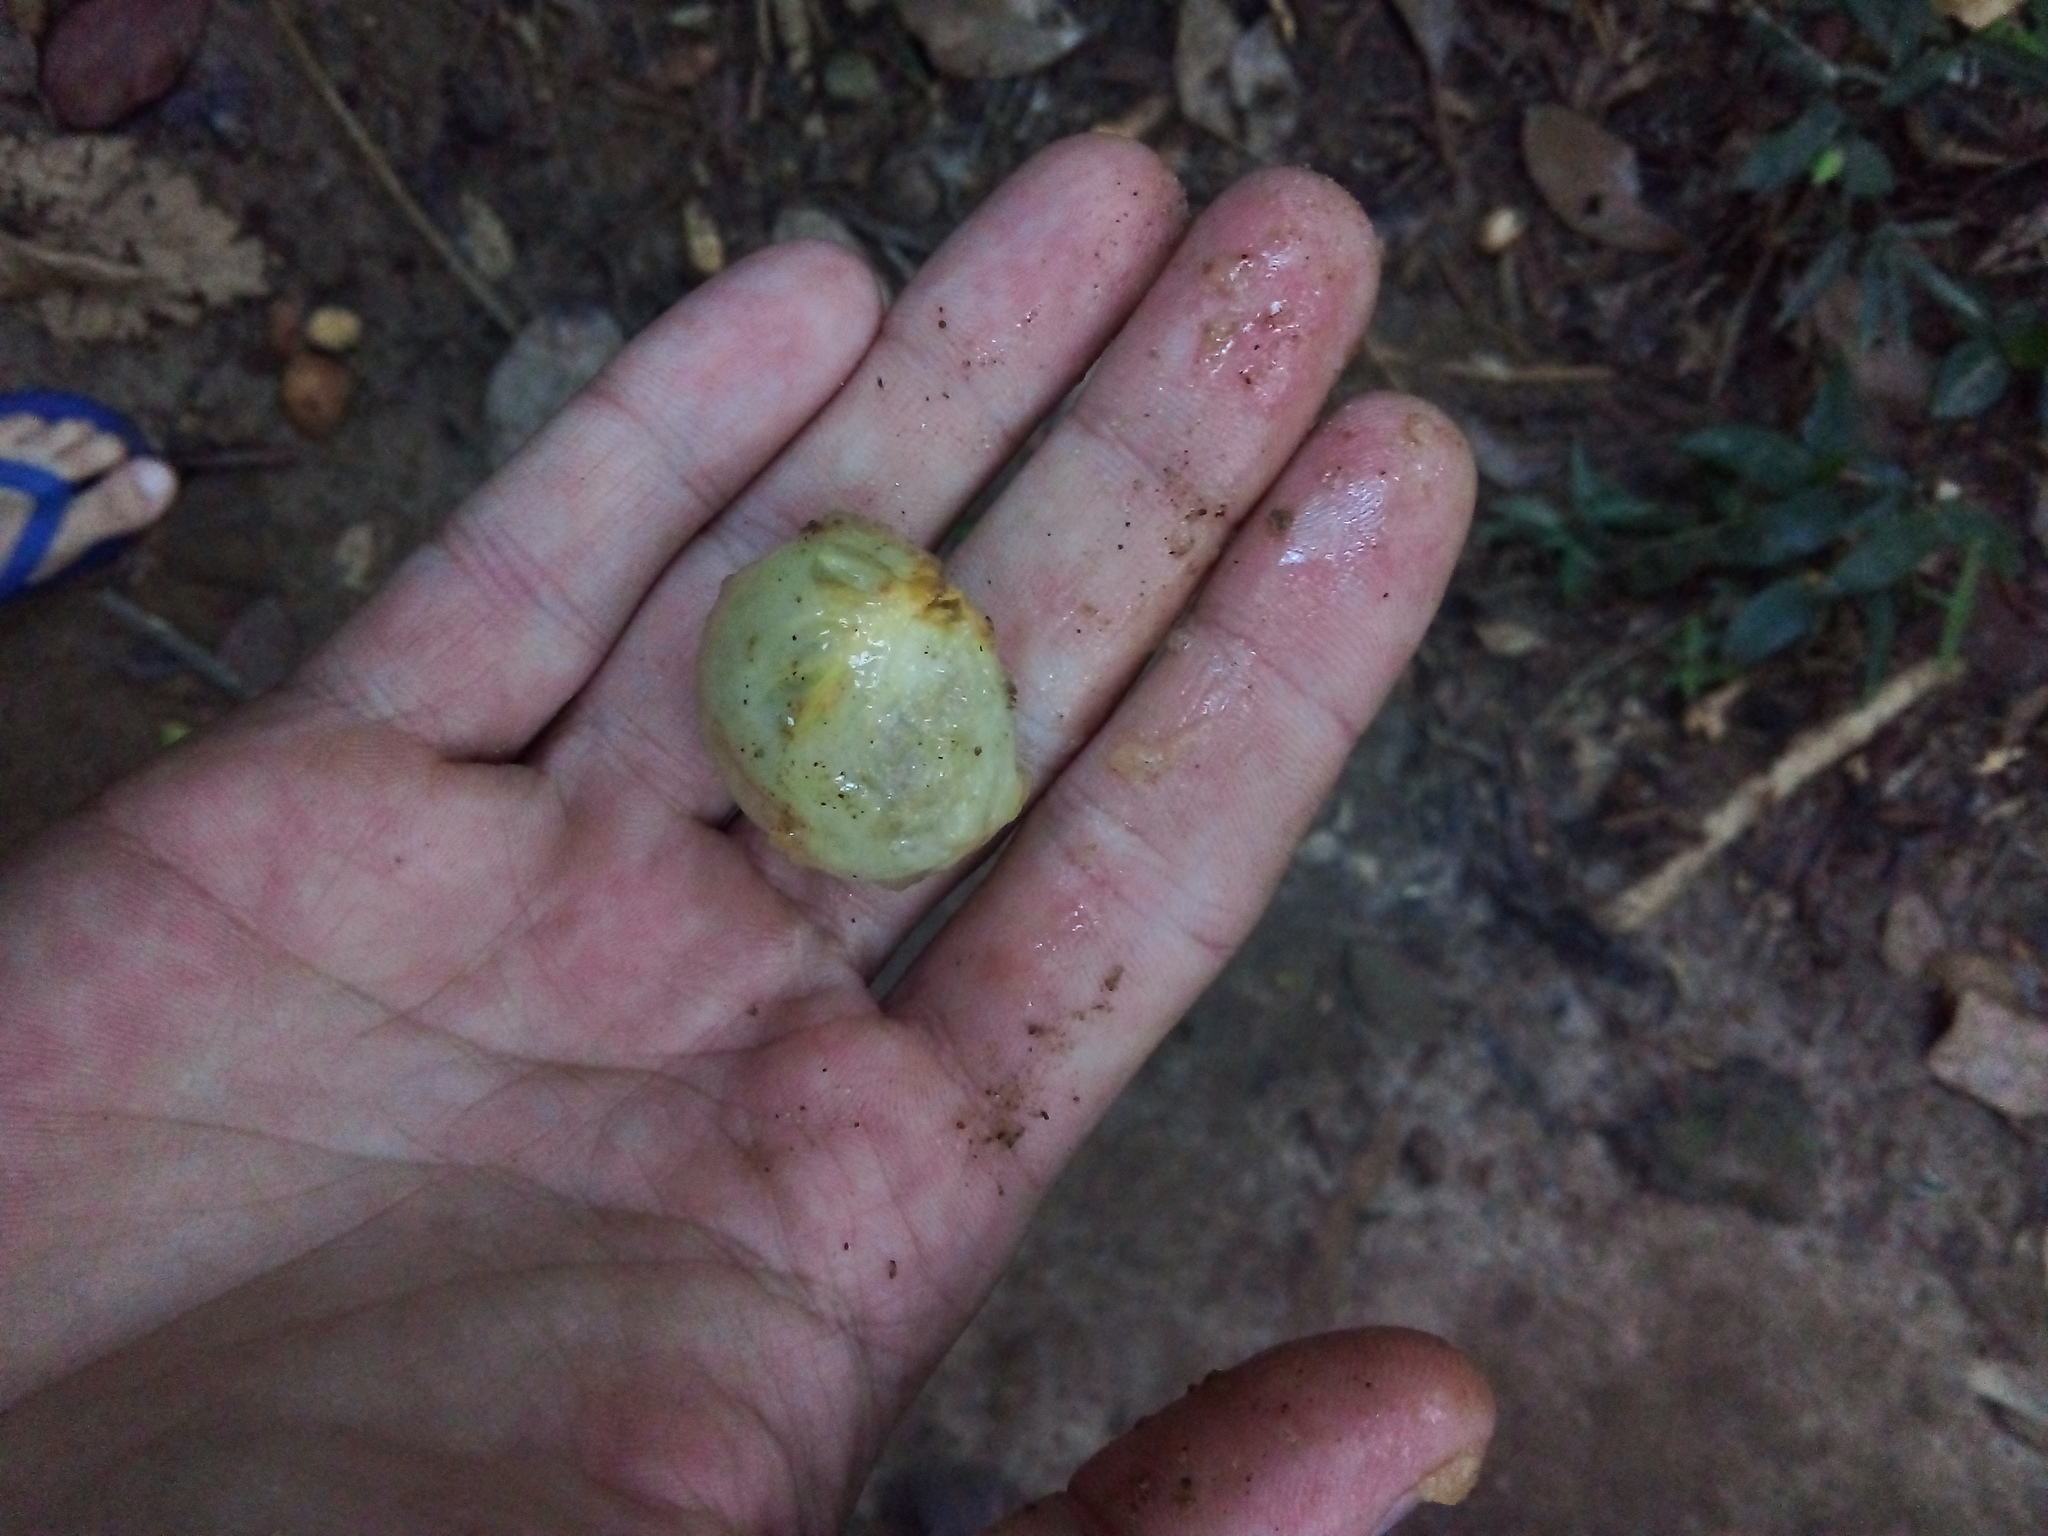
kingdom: Plantae
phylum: Tracheophyta
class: Magnoliopsida
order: Myrtales
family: Myrtaceae
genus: Plinia
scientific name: Plinia edulis
